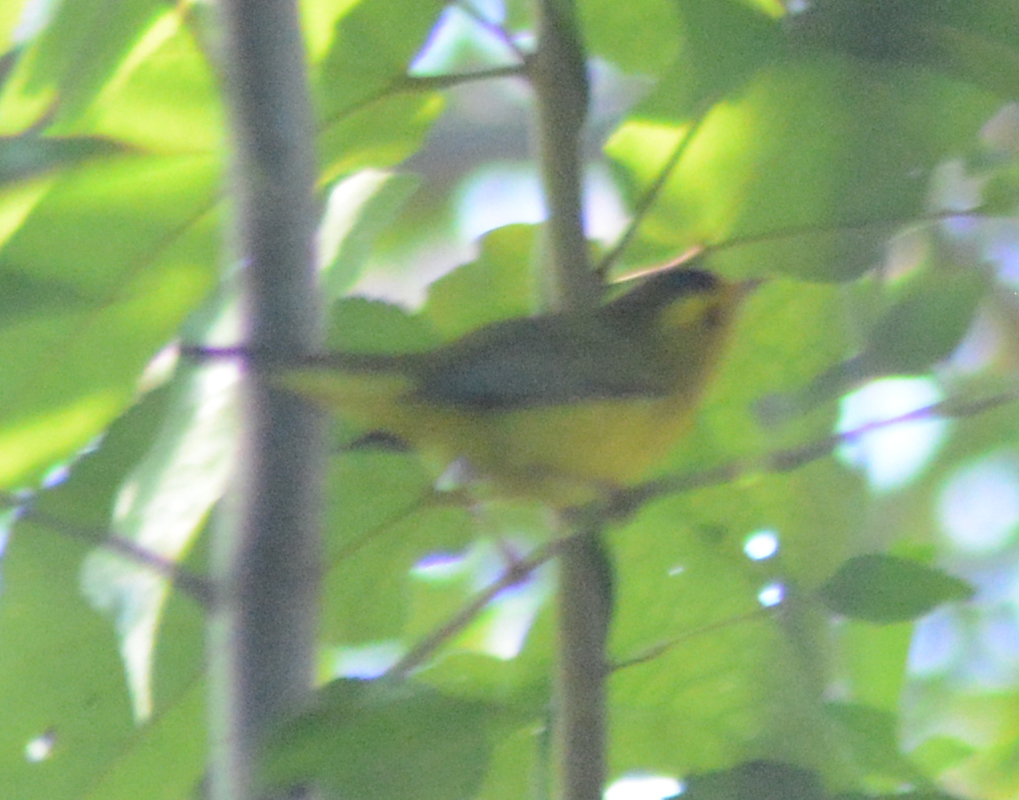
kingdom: Animalia
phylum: Chordata
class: Aves
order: Passeriformes
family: Parulidae
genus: Cardellina
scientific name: Cardellina pusilla
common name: Wilson's warbler
